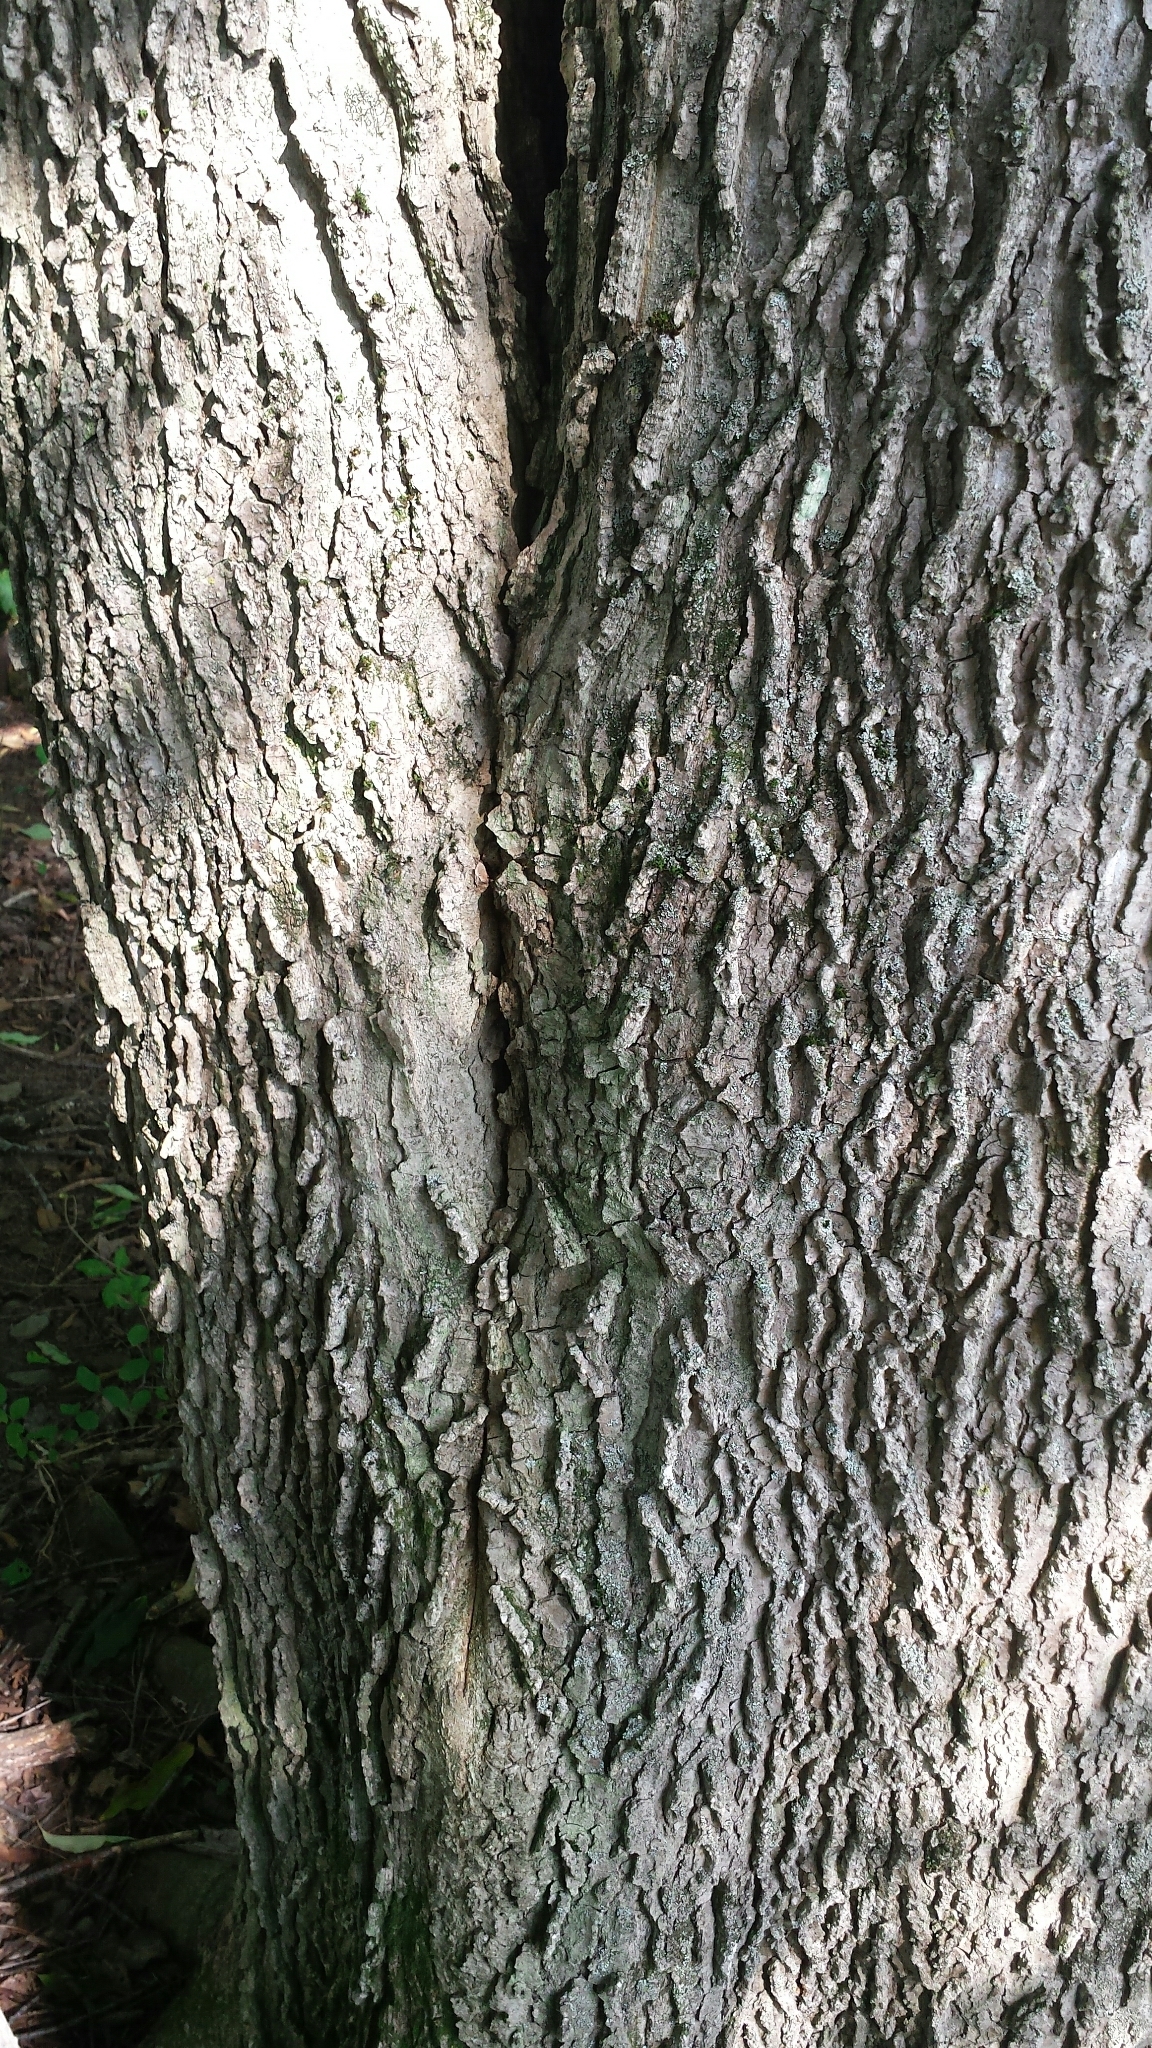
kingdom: Plantae
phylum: Tracheophyta
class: Magnoliopsida
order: Rosales
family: Cannabaceae
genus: Celtis
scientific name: Celtis occidentalis
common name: Common hackberry
